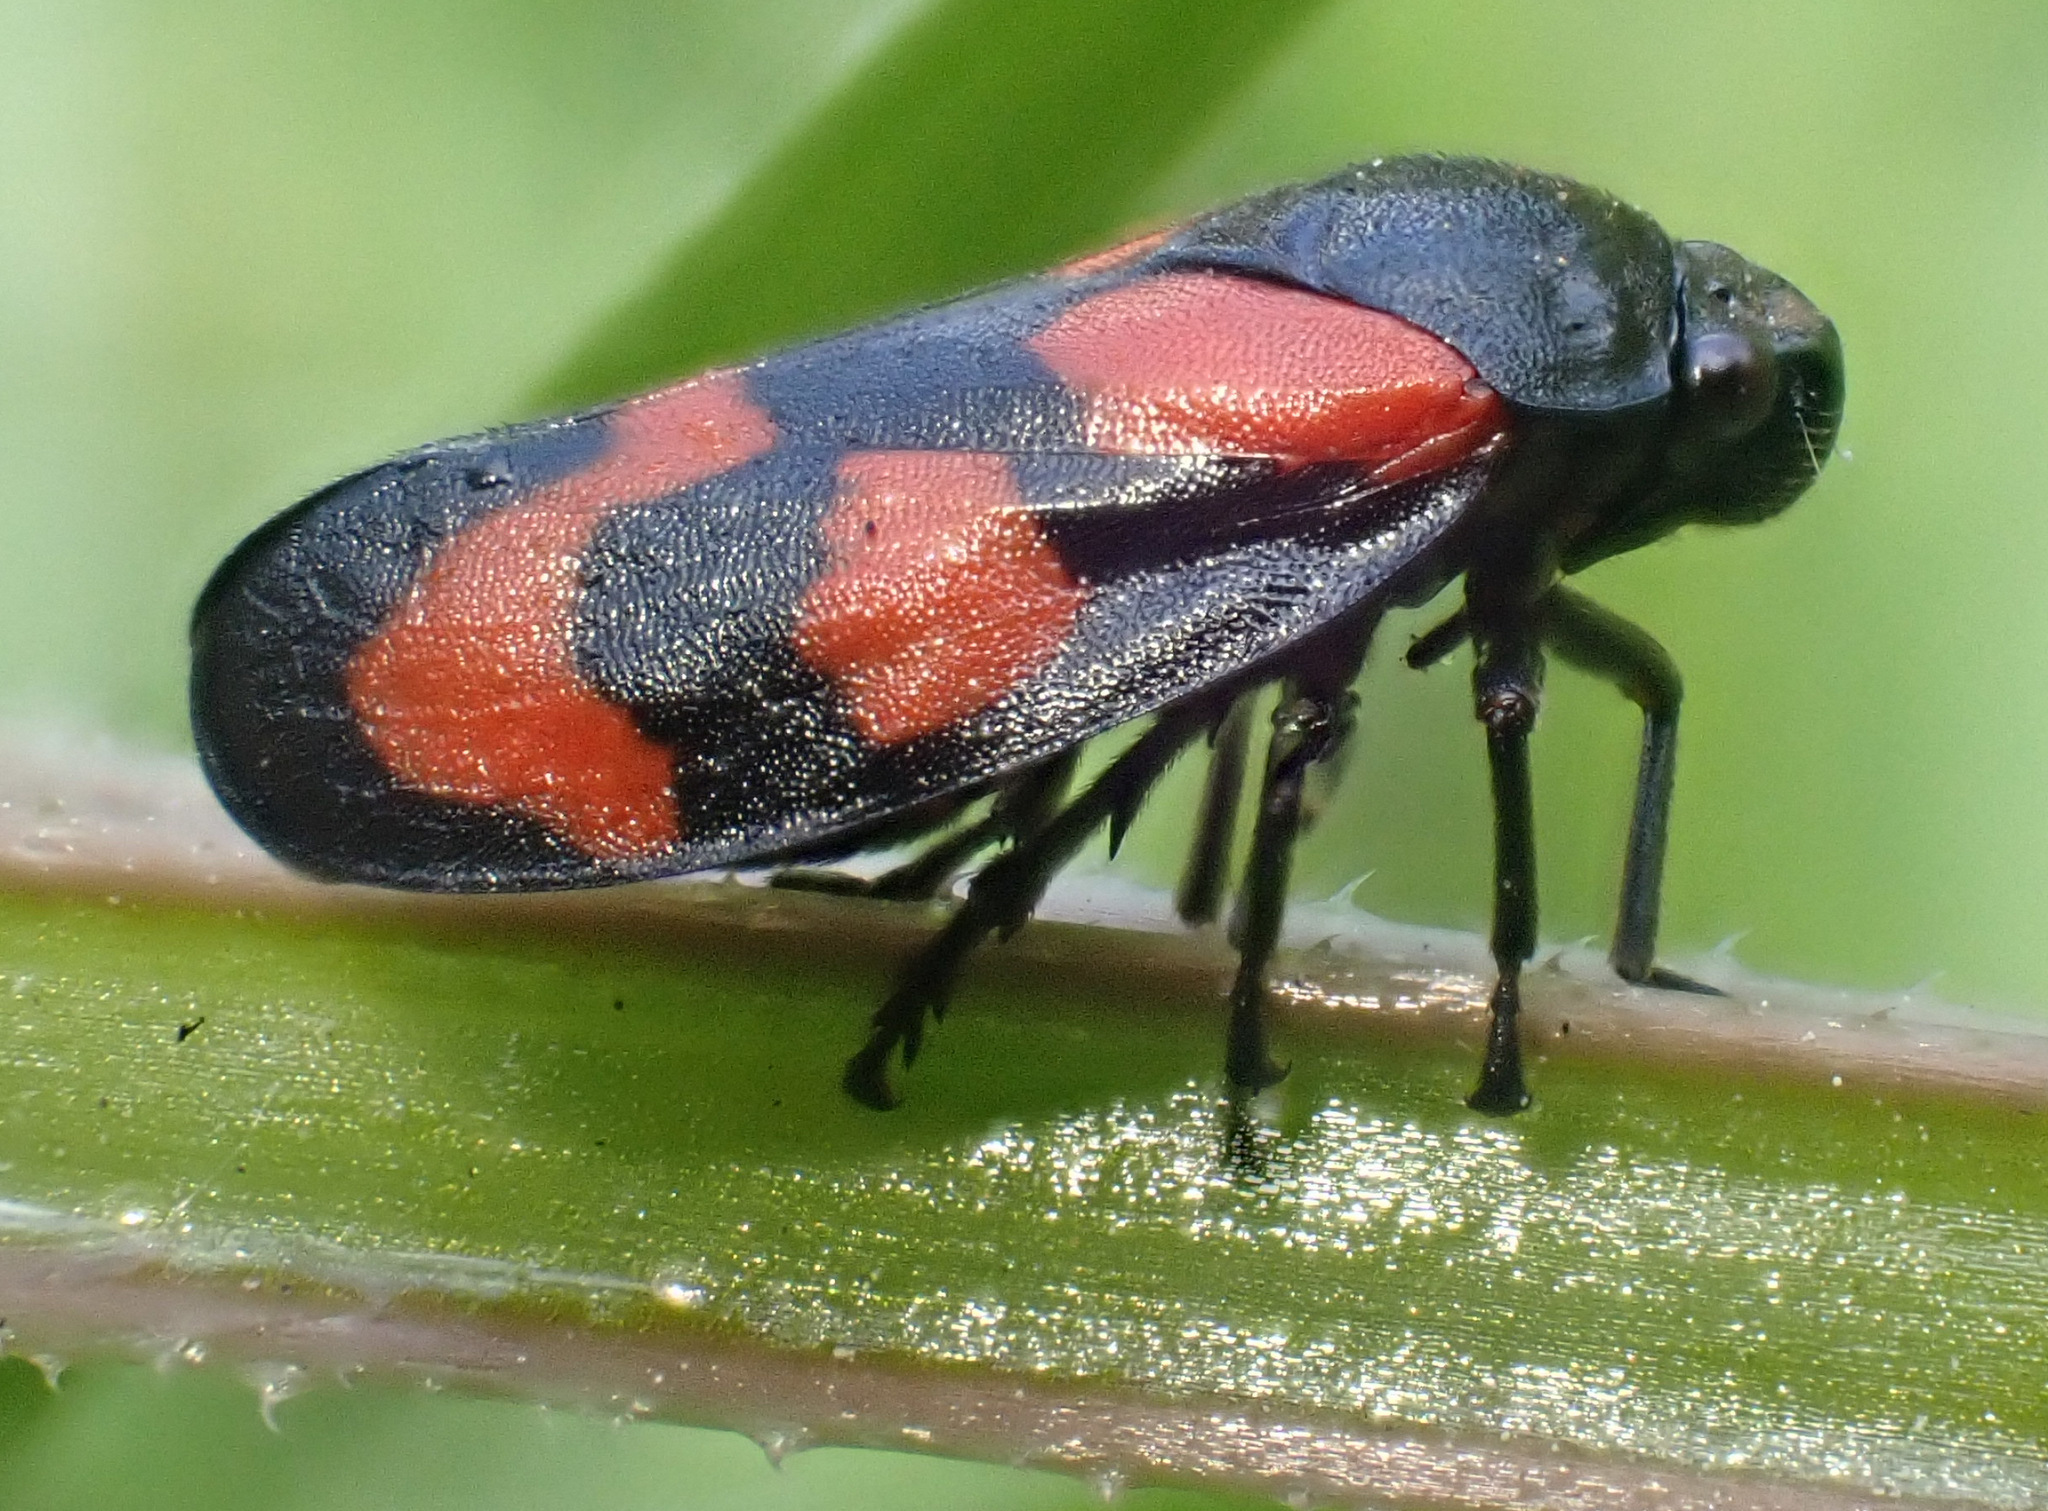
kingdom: Animalia
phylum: Arthropoda
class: Insecta
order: Hemiptera
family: Cercopidae
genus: Cercopis
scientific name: Cercopis vulnerata
